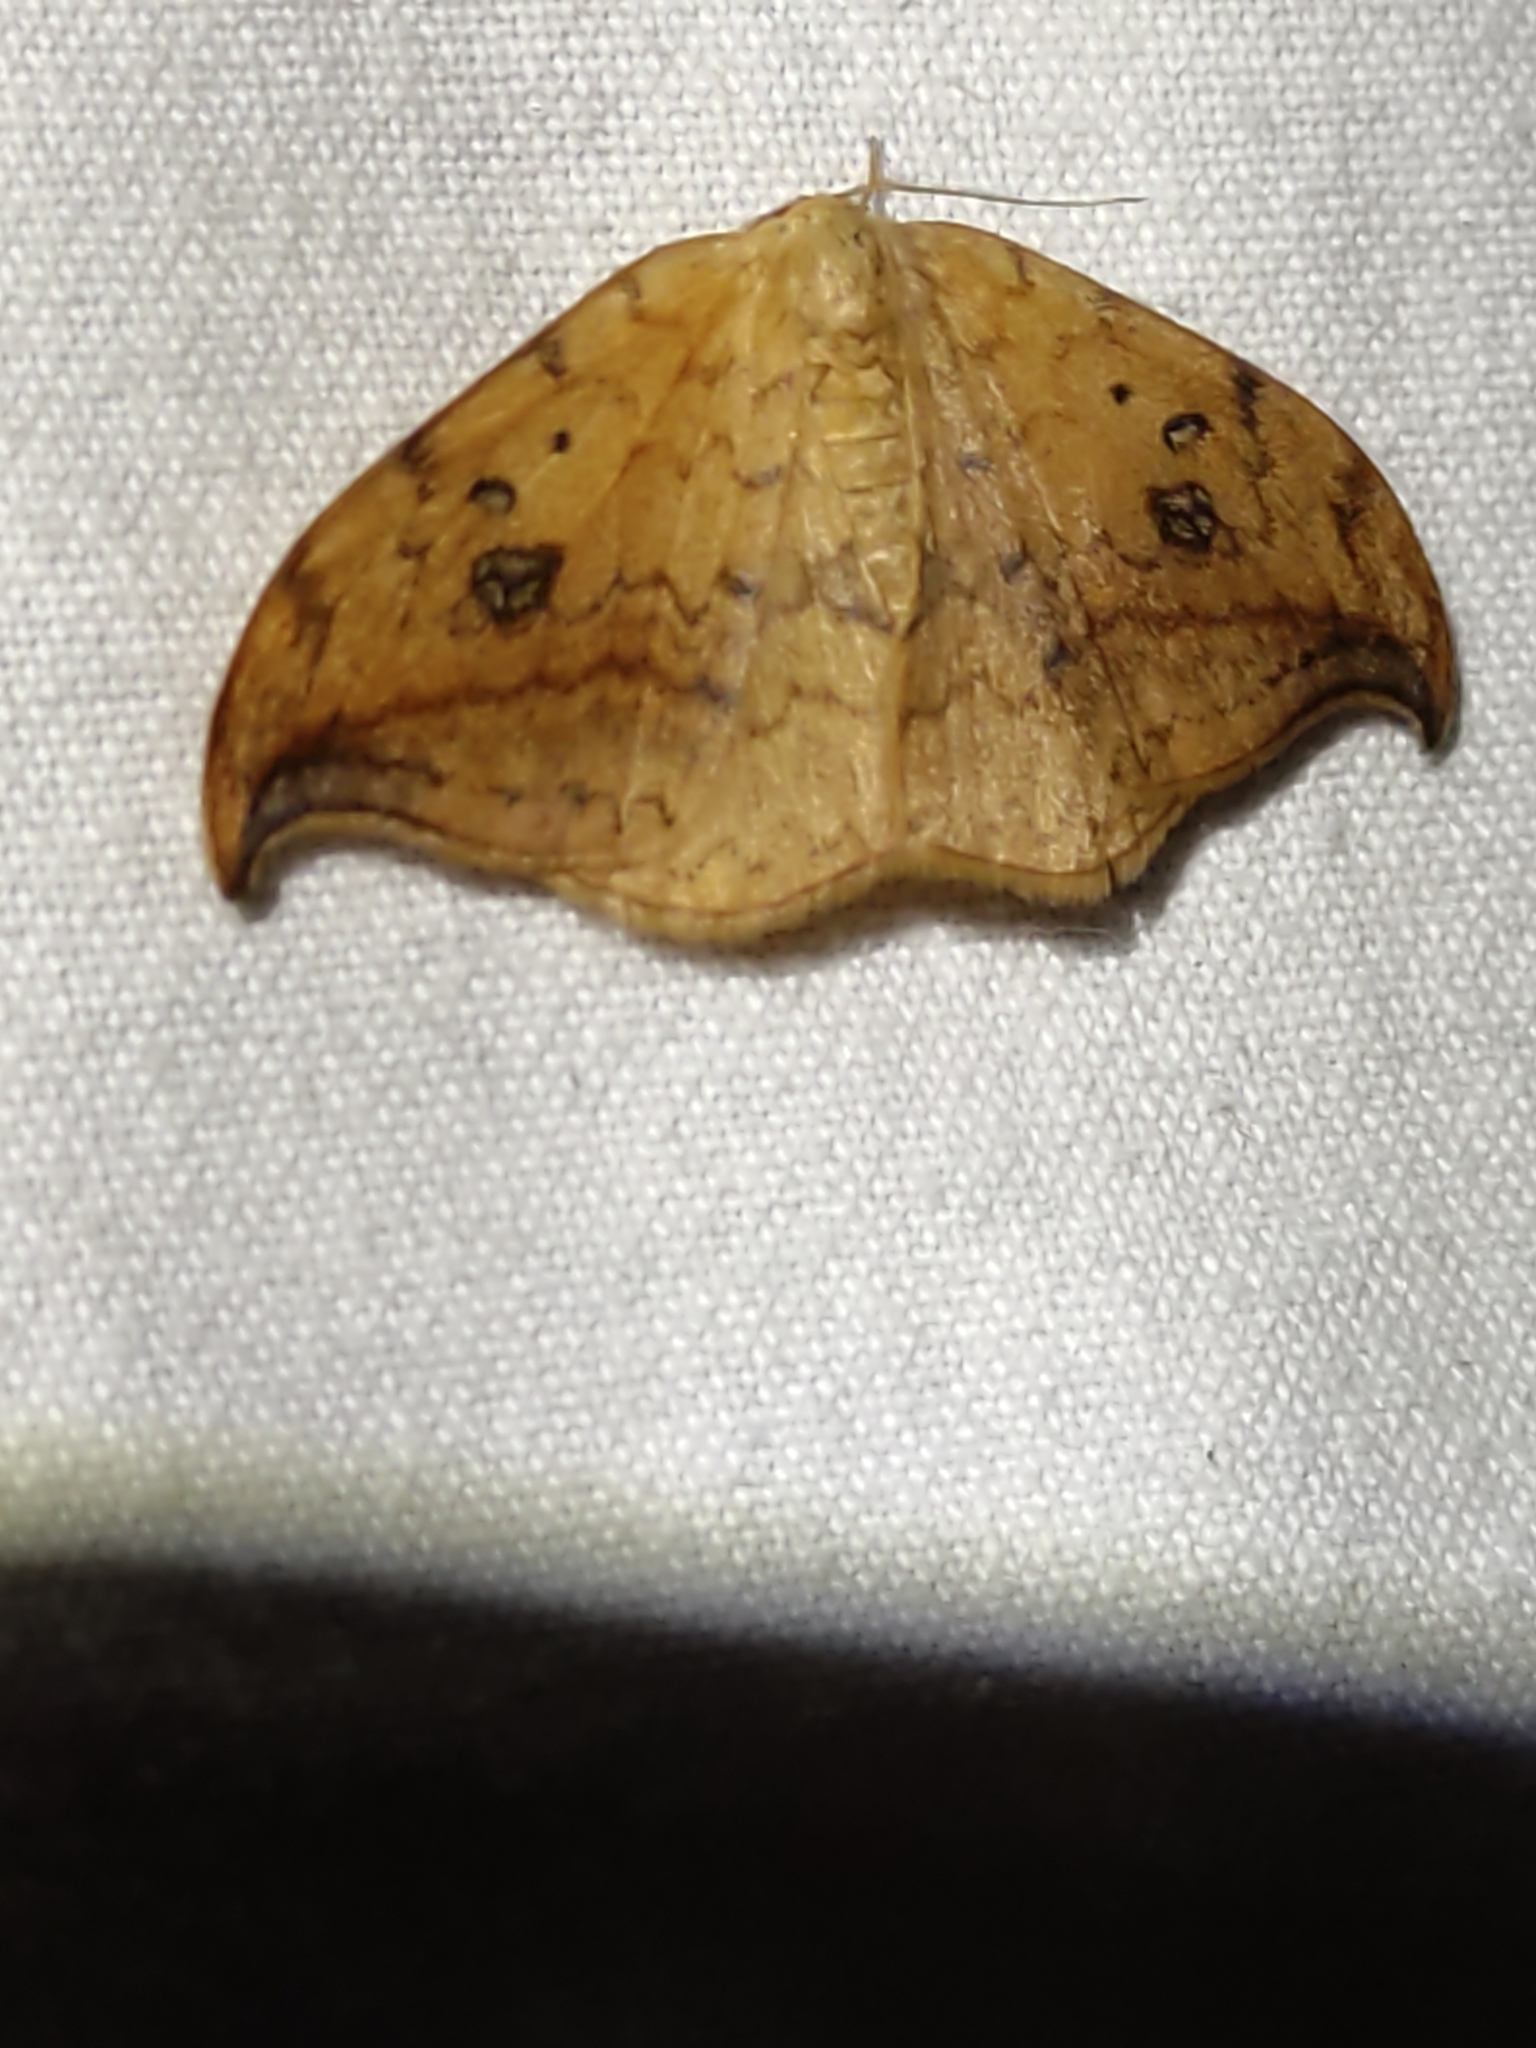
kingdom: Animalia
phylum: Arthropoda
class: Insecta
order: Lepidoptera
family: Drepanidae
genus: Drepana
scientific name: Drepana falcataria
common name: Pebble hook-tip
